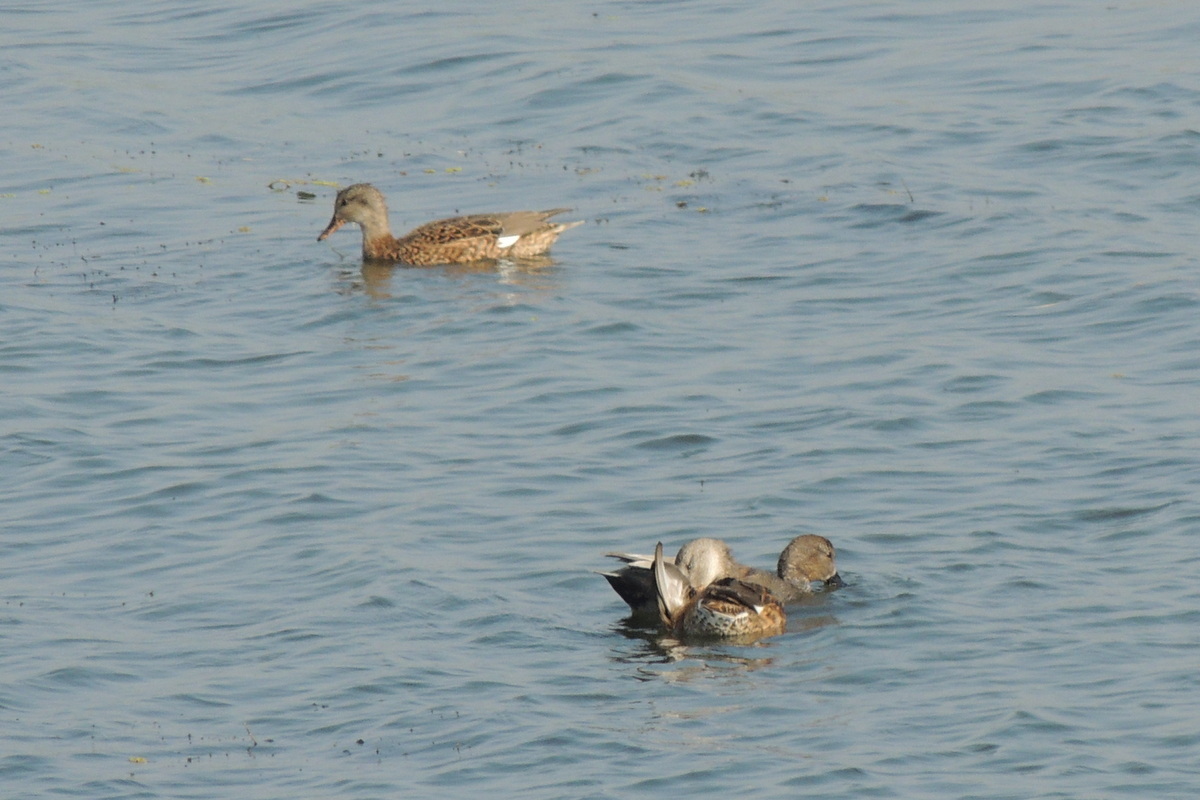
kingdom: Animalia
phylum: Chordata
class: Aves
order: Anseriformes
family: Anatidae
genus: Mareca
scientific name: Mareca strepera
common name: Gadwall
